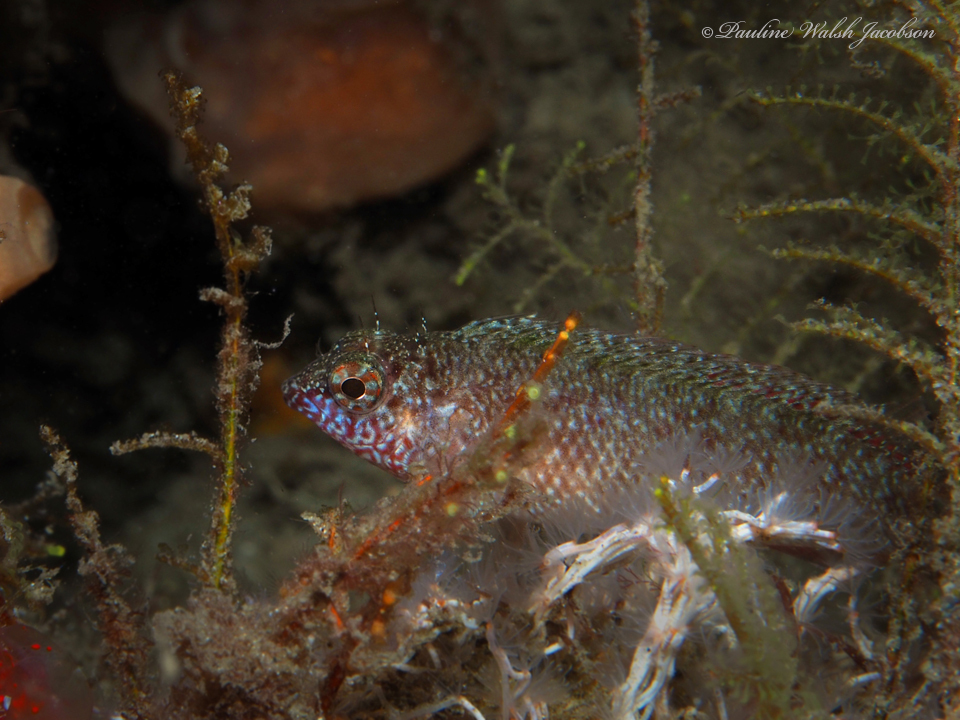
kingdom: Animalia
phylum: Chordata
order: Perciformes
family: Labrisomidae
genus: Malacoctenus
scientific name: Malacoctenus macropus
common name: Rosy blenny
